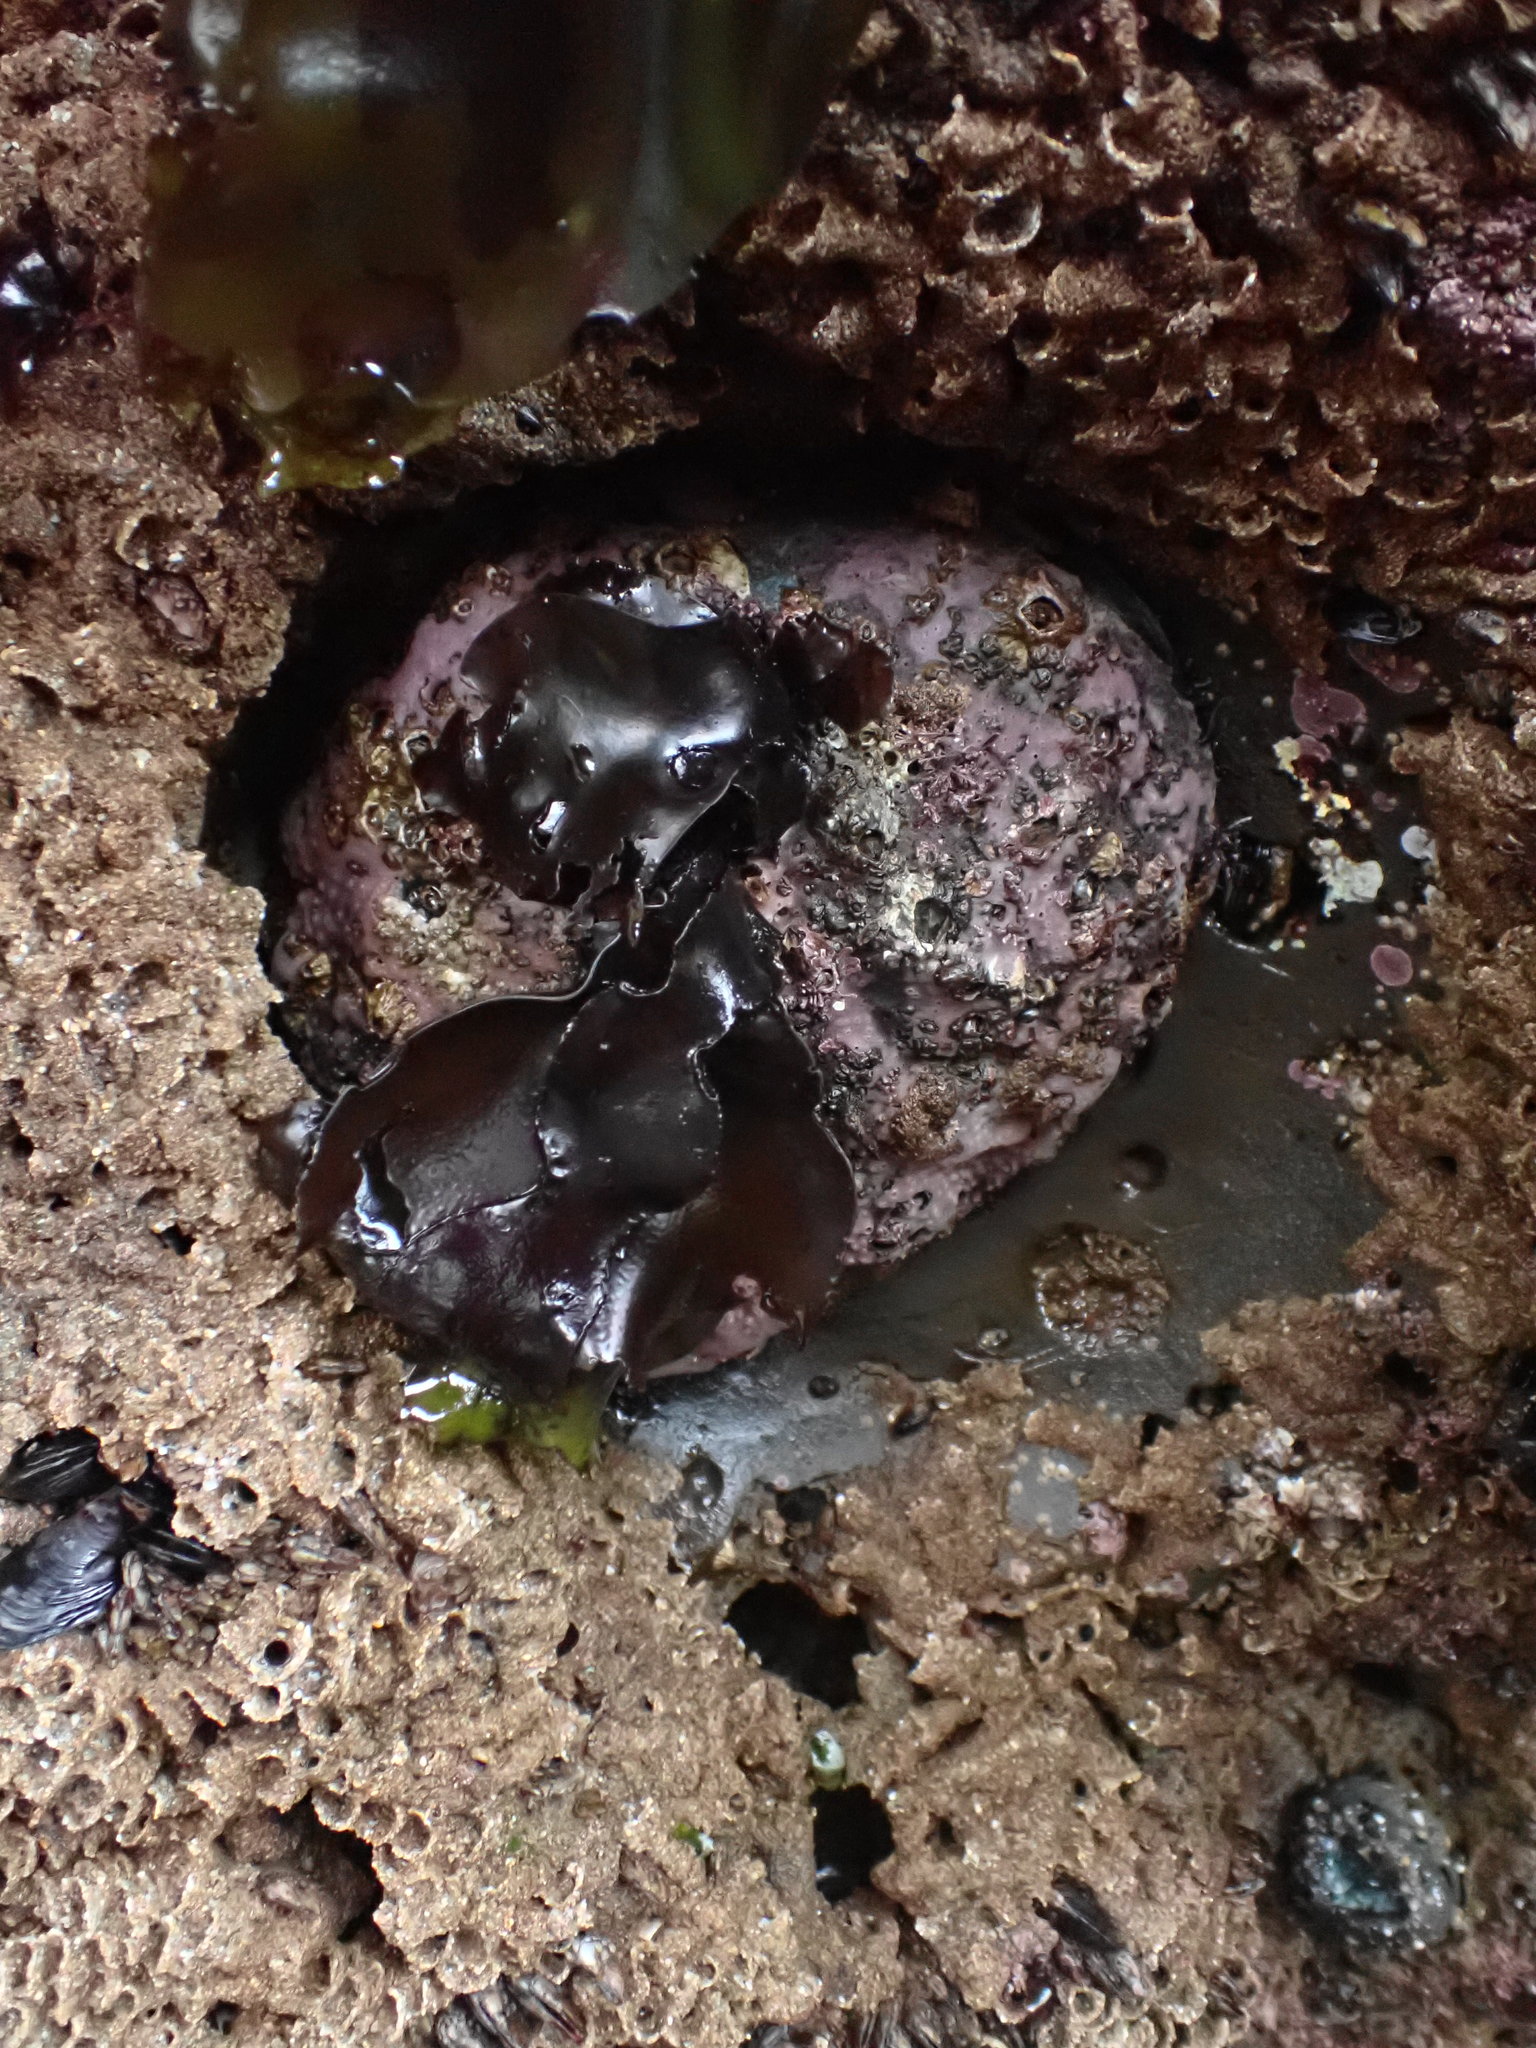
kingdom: Animalia
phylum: Mollusca
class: Gastropoda
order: Lepetellida
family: Haliotidae
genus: Haliotis
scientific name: Haliotis cracherodii
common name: Black abalone
